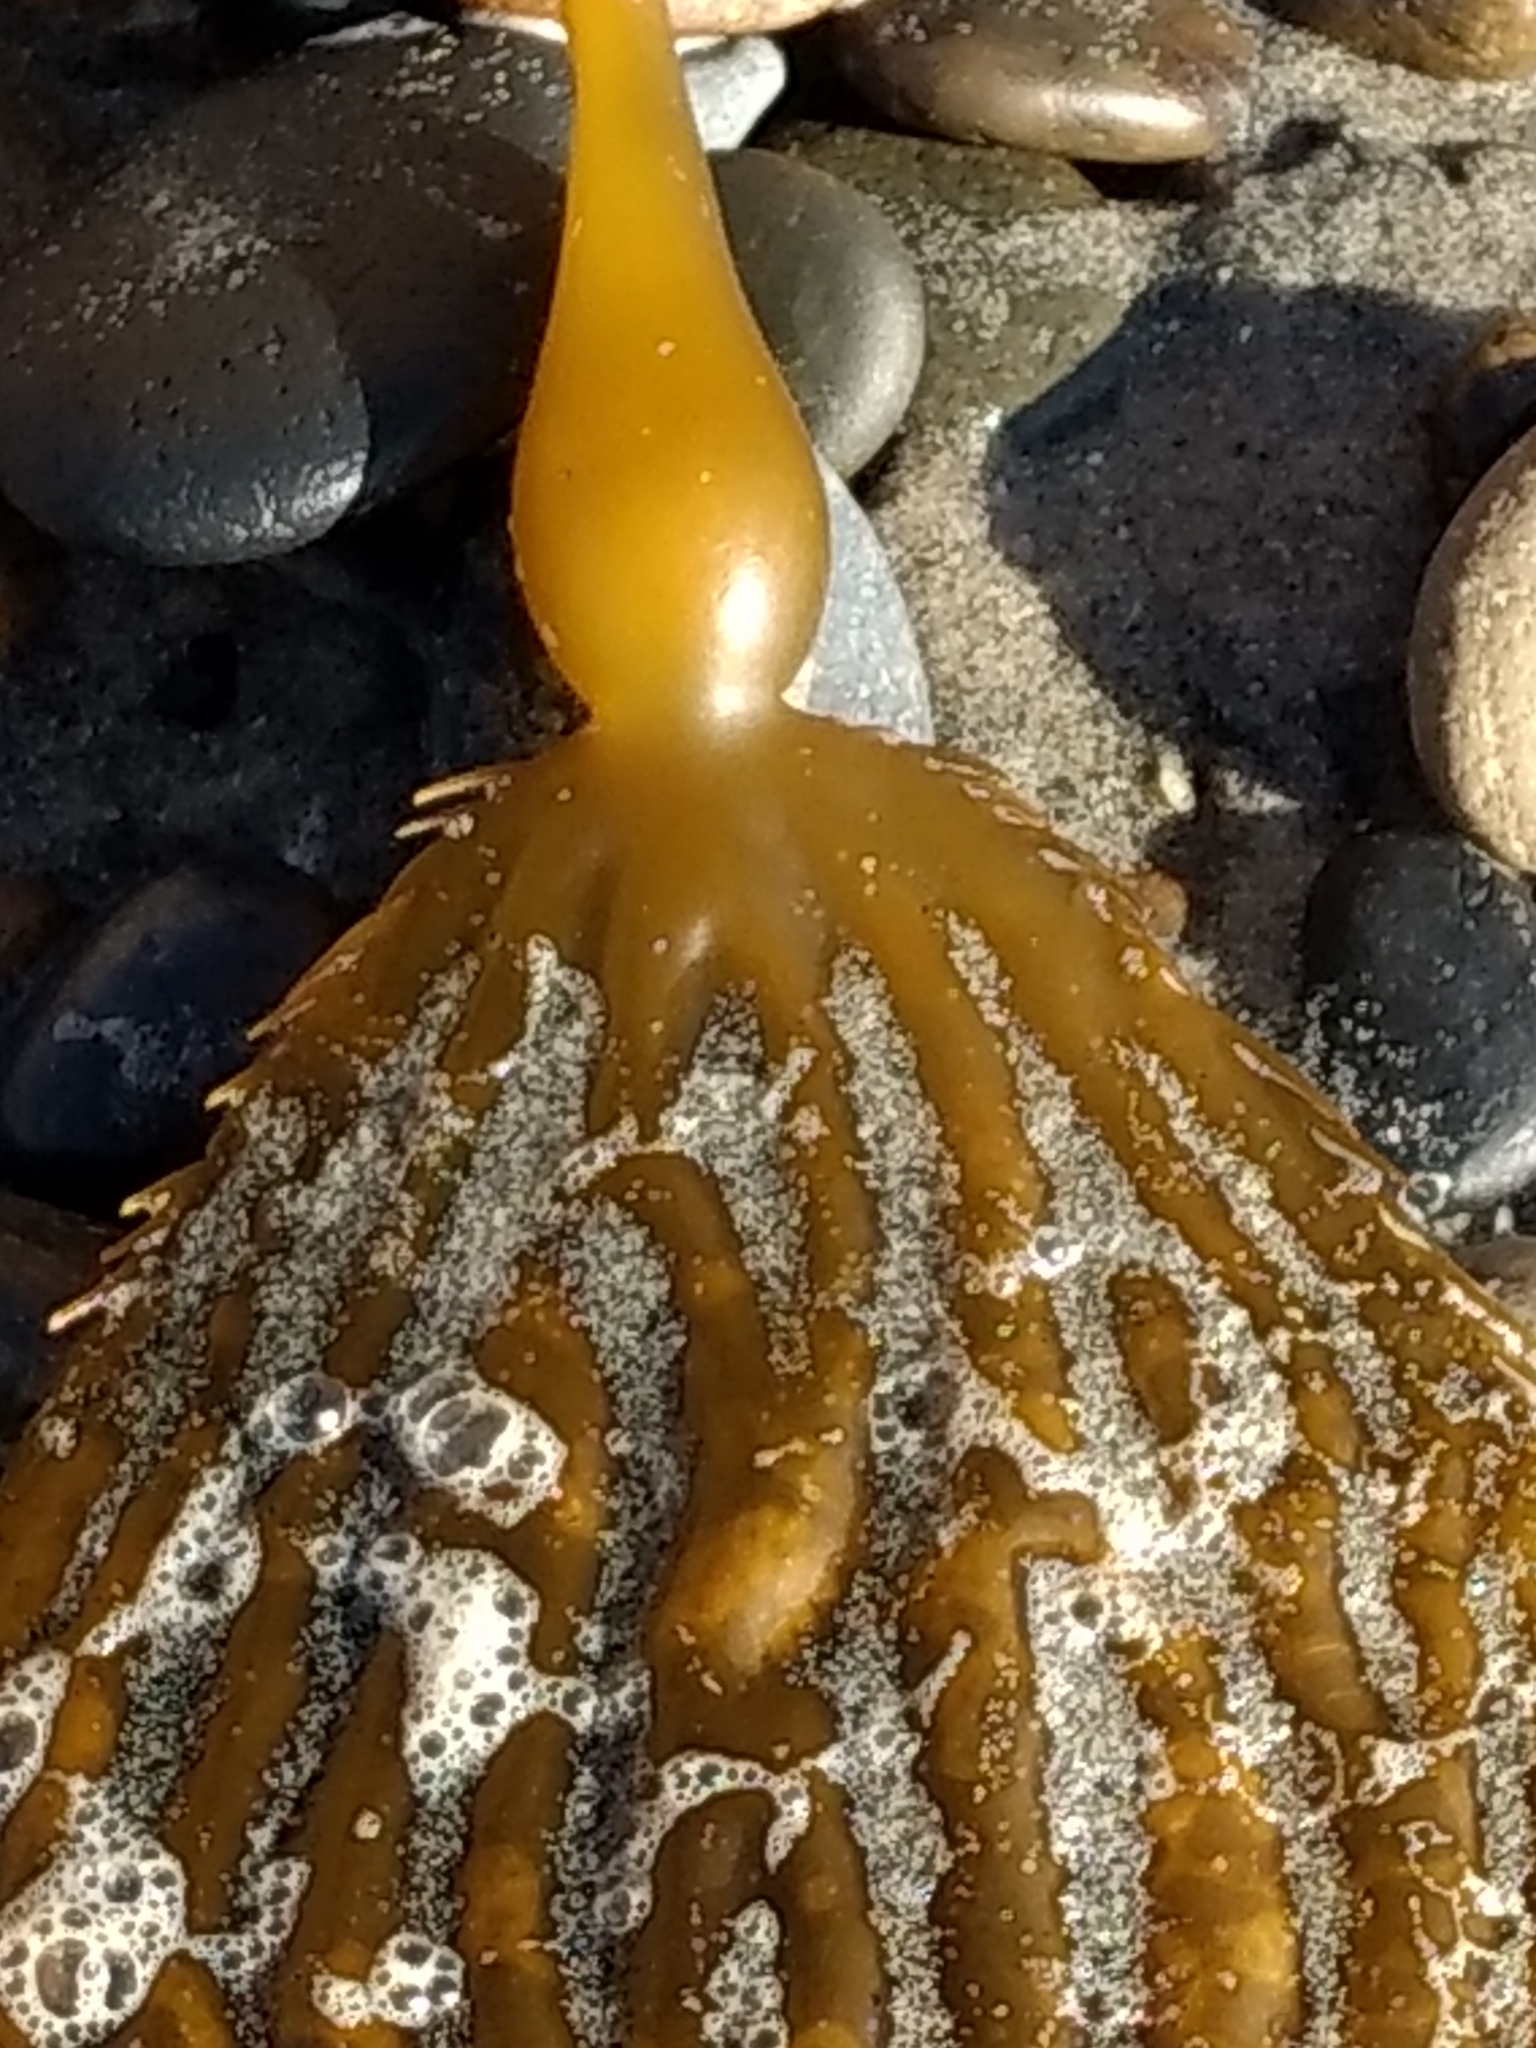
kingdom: Chromista
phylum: Ochrophyta
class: Phaeophyceae
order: Laminariales
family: Laminariaceae
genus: Macrocystis
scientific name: Macrocystis pyrifera
